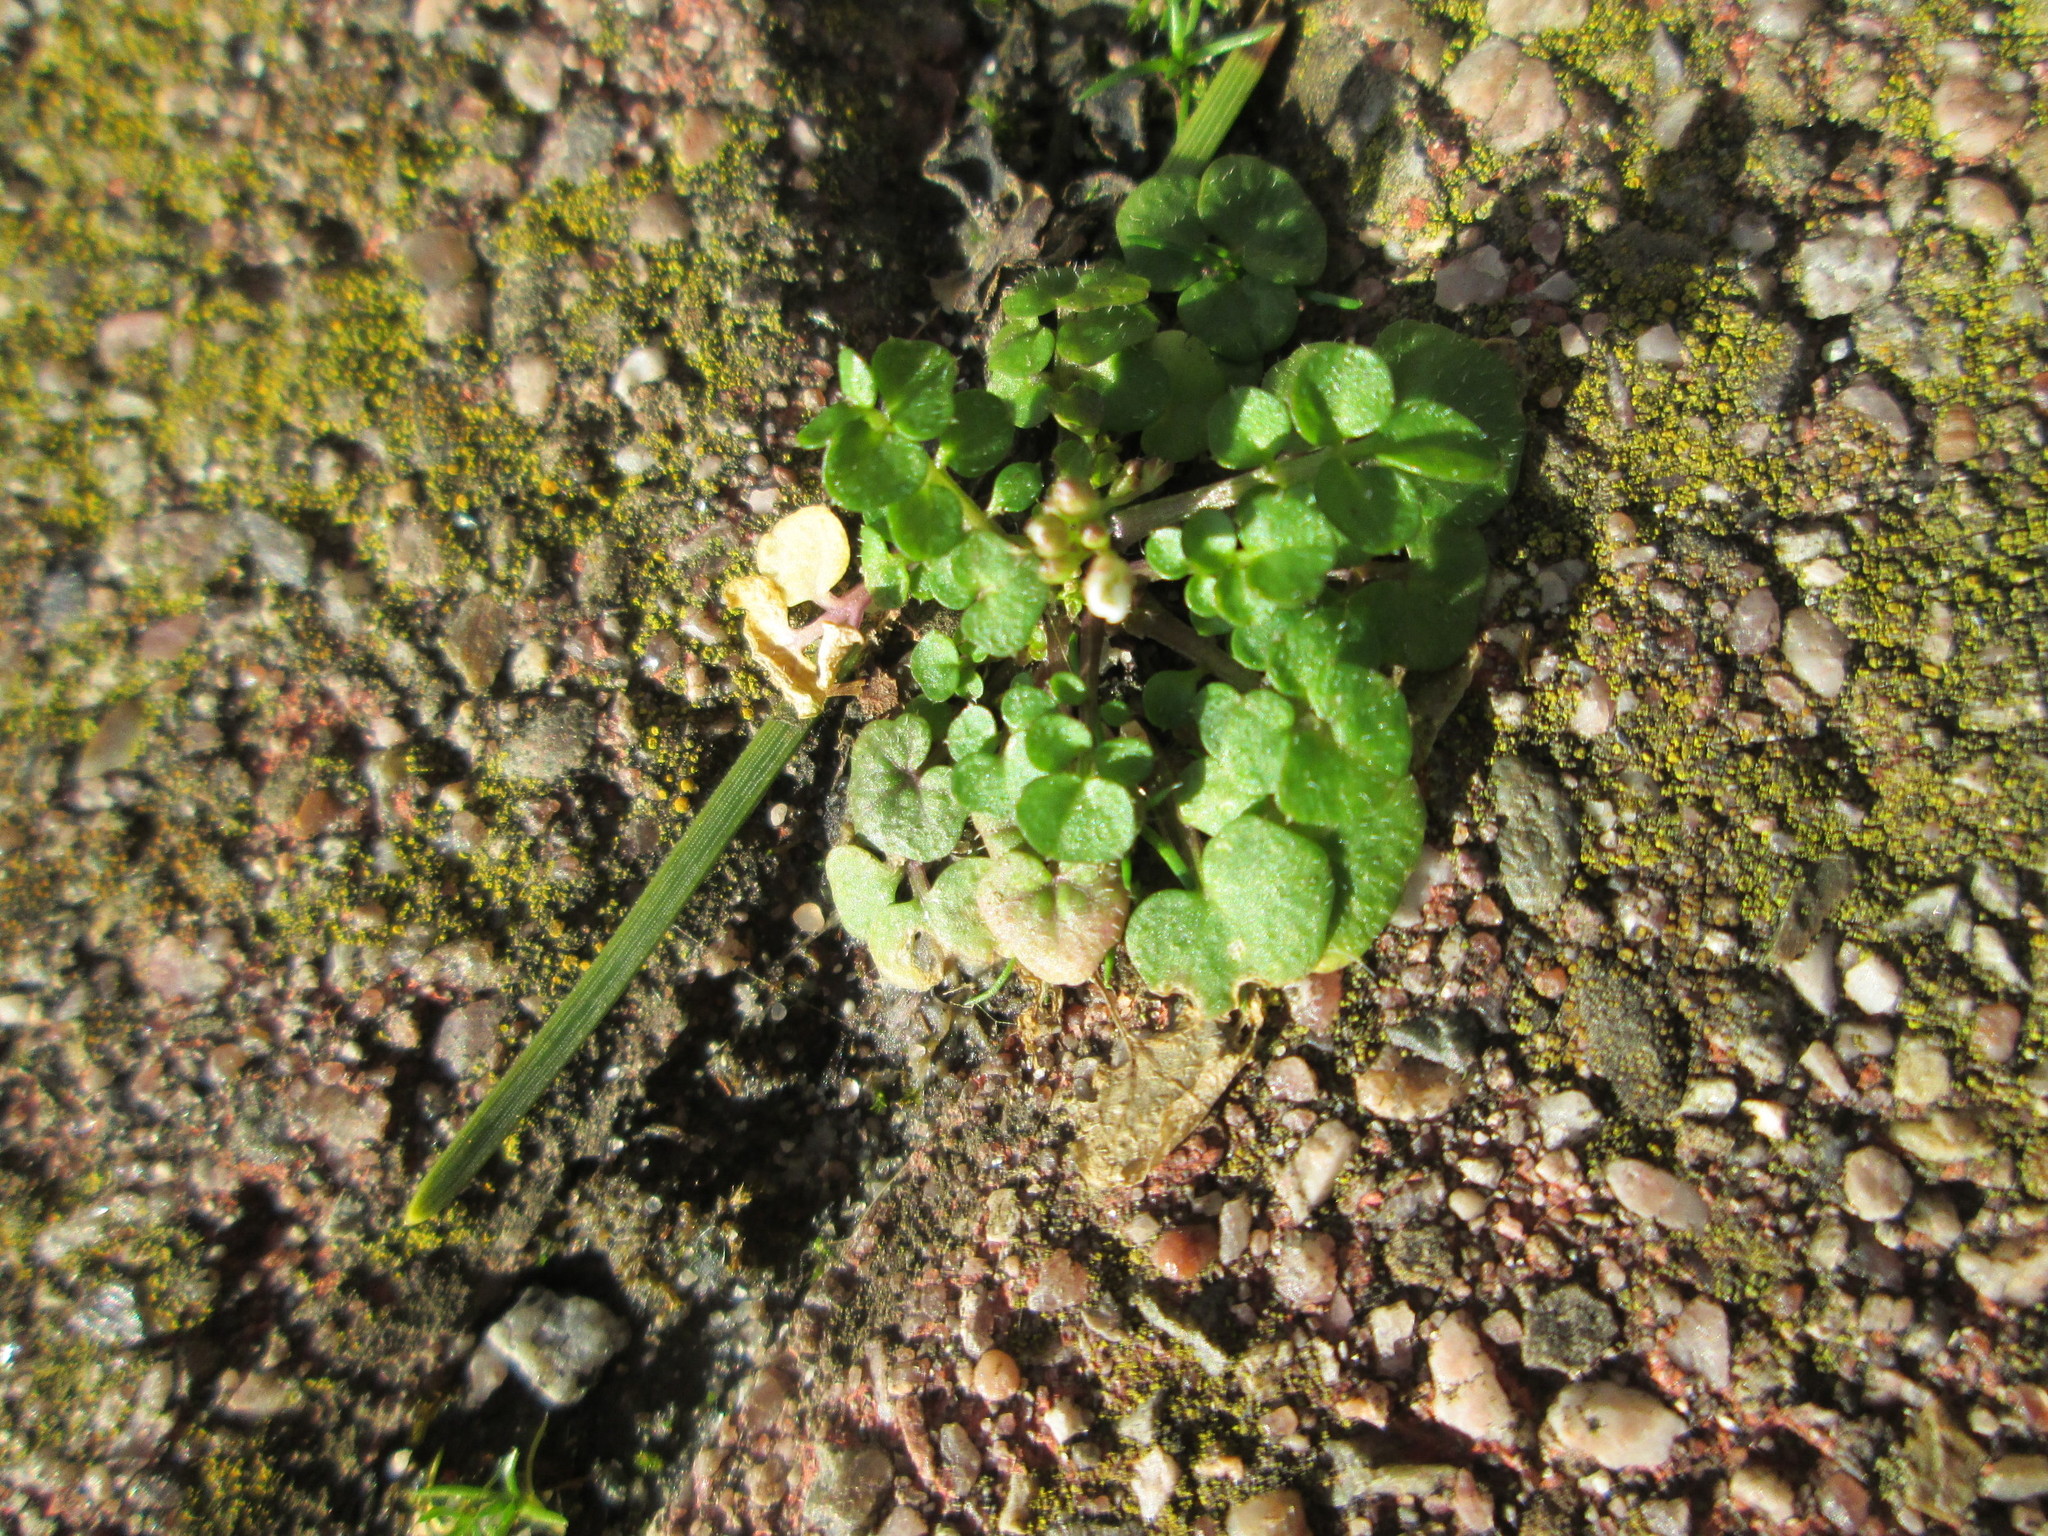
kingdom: Plantae
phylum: Tracheophyta
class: Magnoliopsida
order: Brassicales
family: Brassicaceae
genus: Cardamine
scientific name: Cardamine hirsuta
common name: Hairy bittercress
